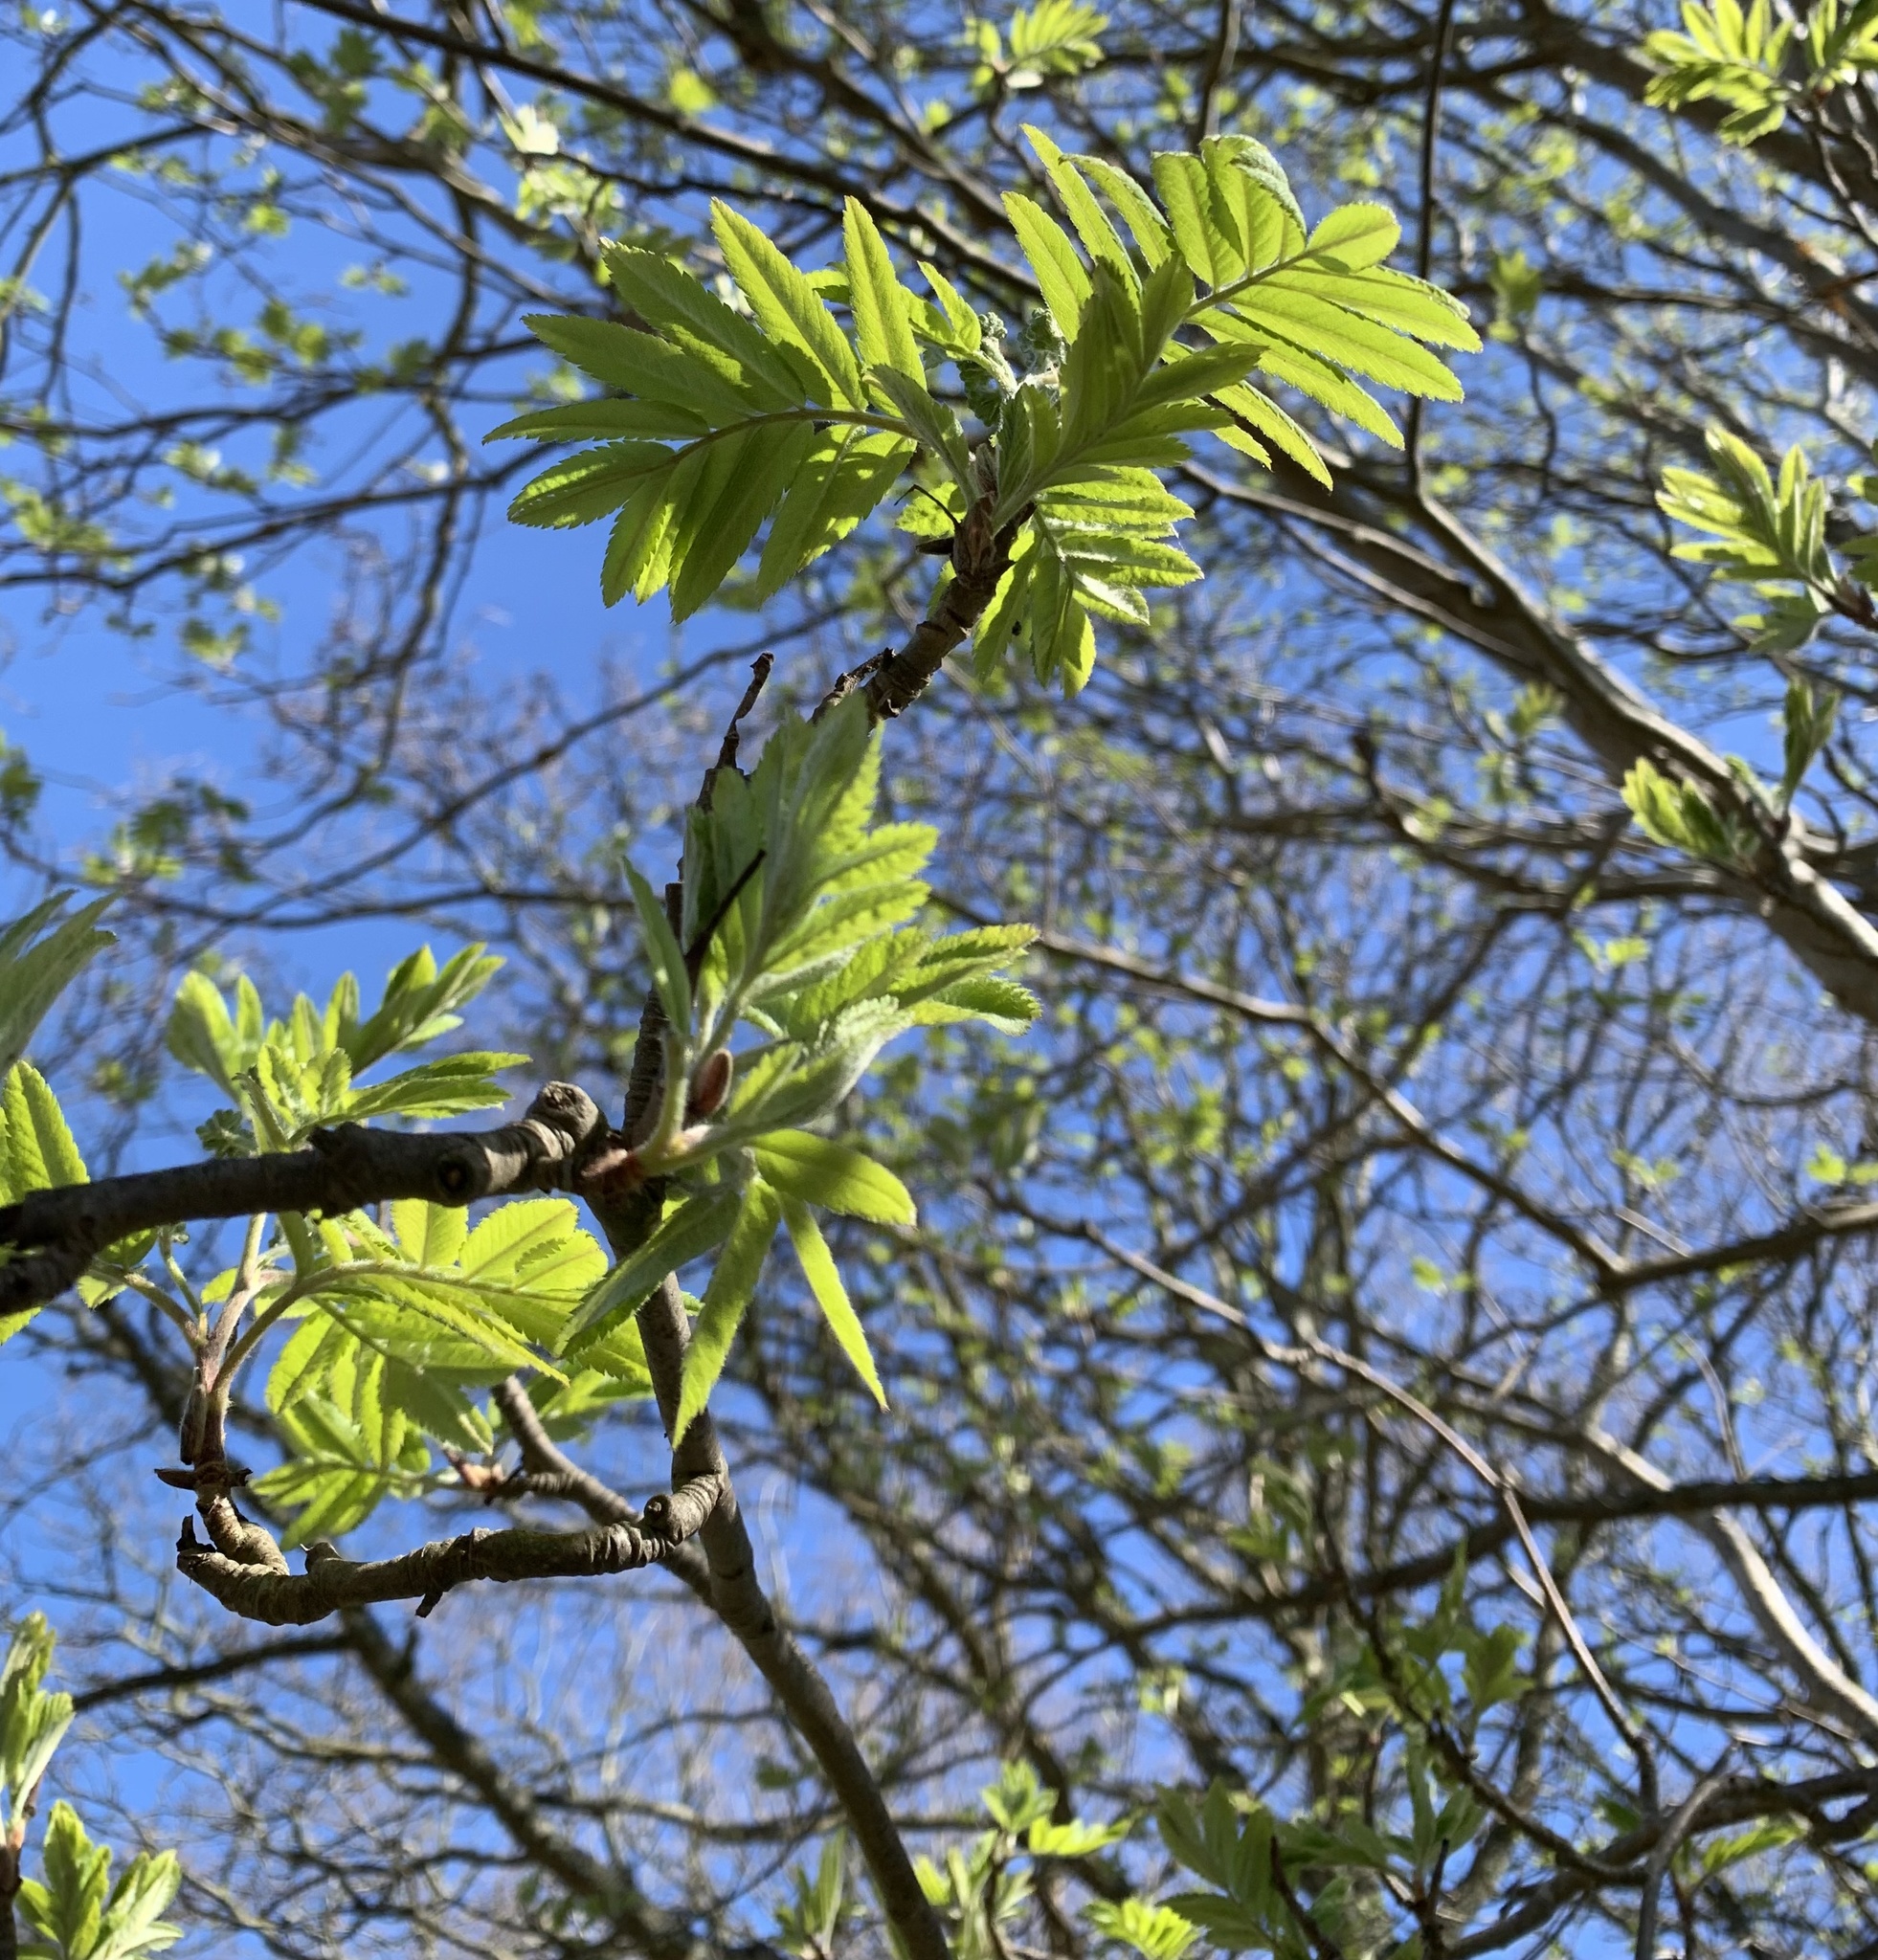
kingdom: Plantae
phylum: Tracheophyta
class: Magnoliopsida
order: Rosales
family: Rosaceae
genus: Sorbus
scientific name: Sorbus aucuparia
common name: Rowan
